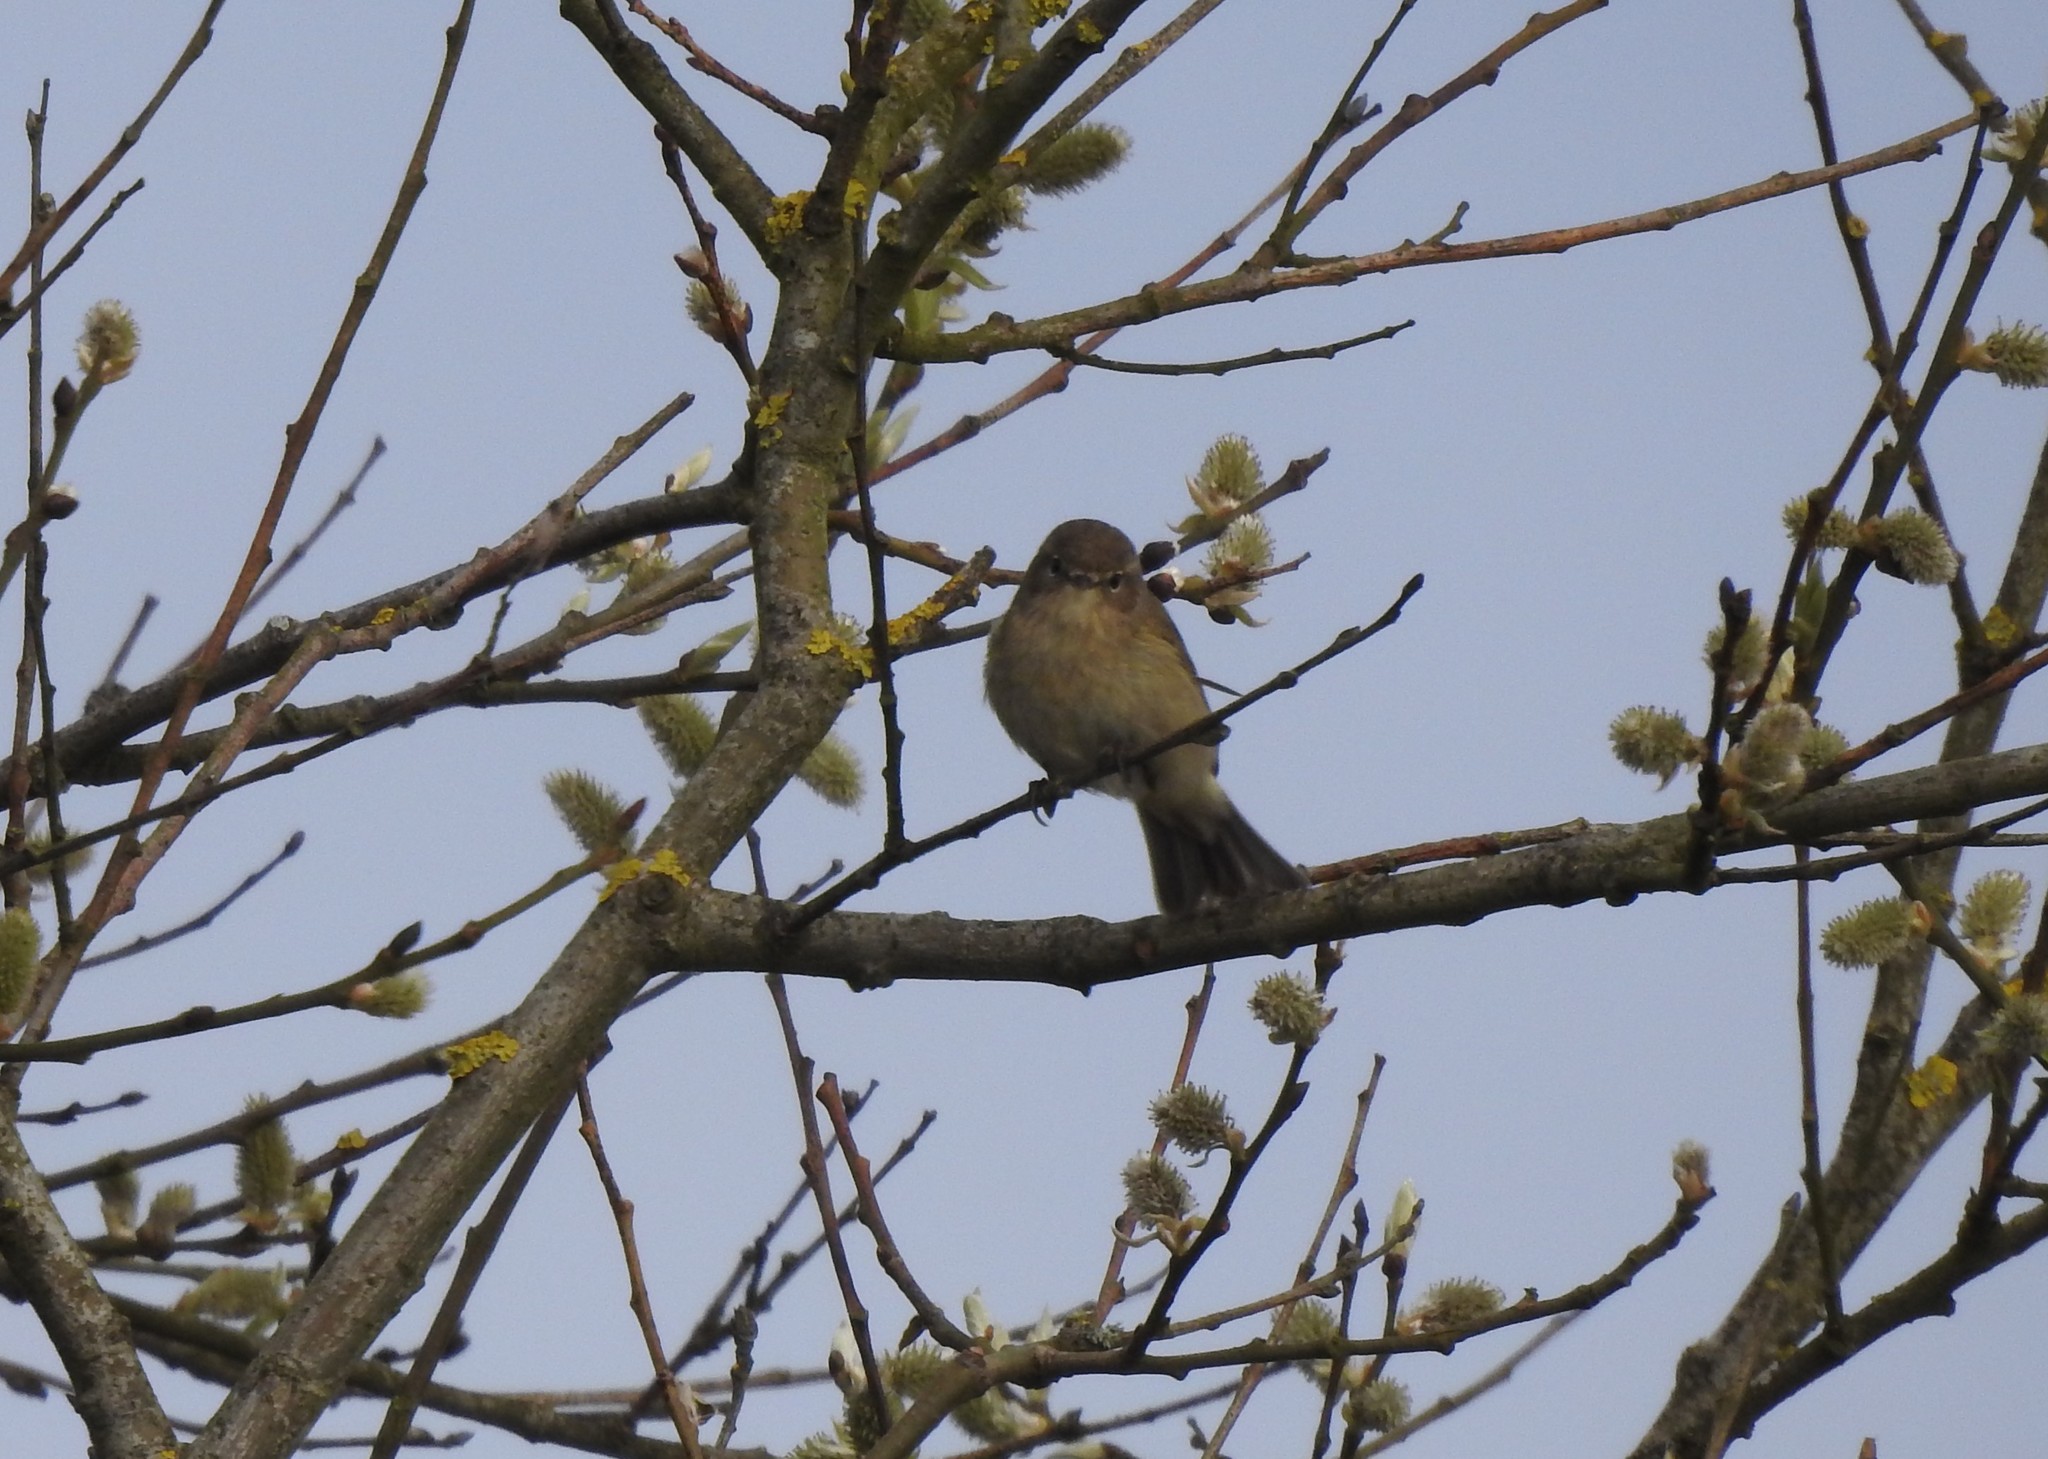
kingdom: Animalia
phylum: Chordata
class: Aves
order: Passeriformes
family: Phylloscopidae
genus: Phylloscopus
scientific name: Phylloscopus collybita
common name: Common chiffchaff
